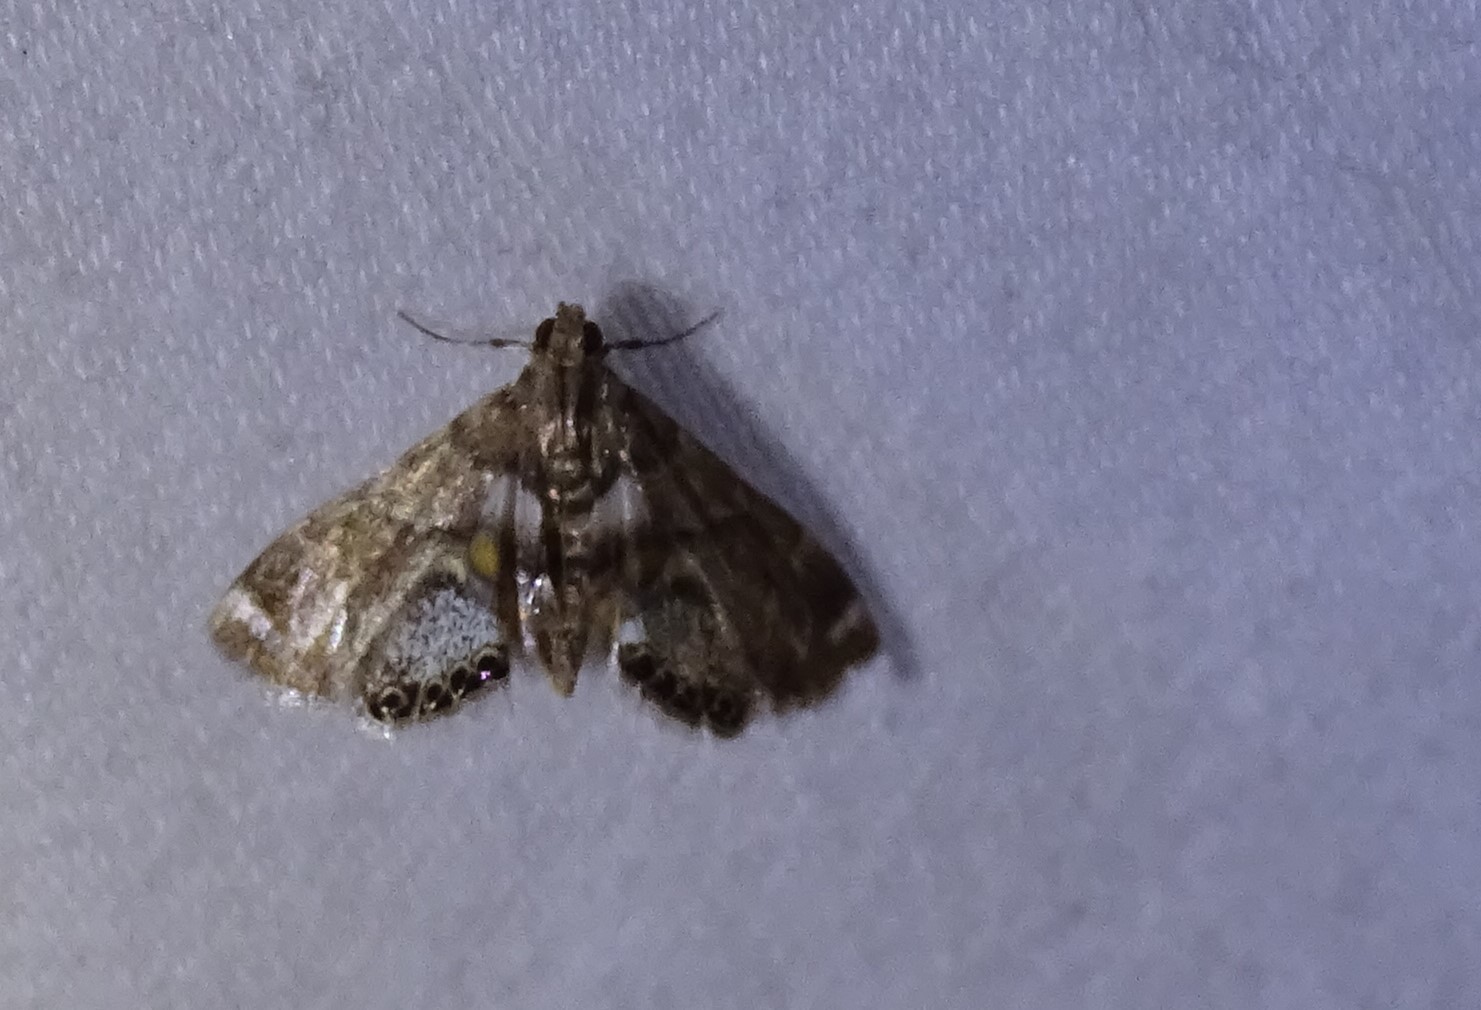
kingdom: Animalia
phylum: Arthropoda
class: Insecta
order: Lepidoptera
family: Crambidae
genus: Neargyractis
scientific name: Neargyractis slossonalis
